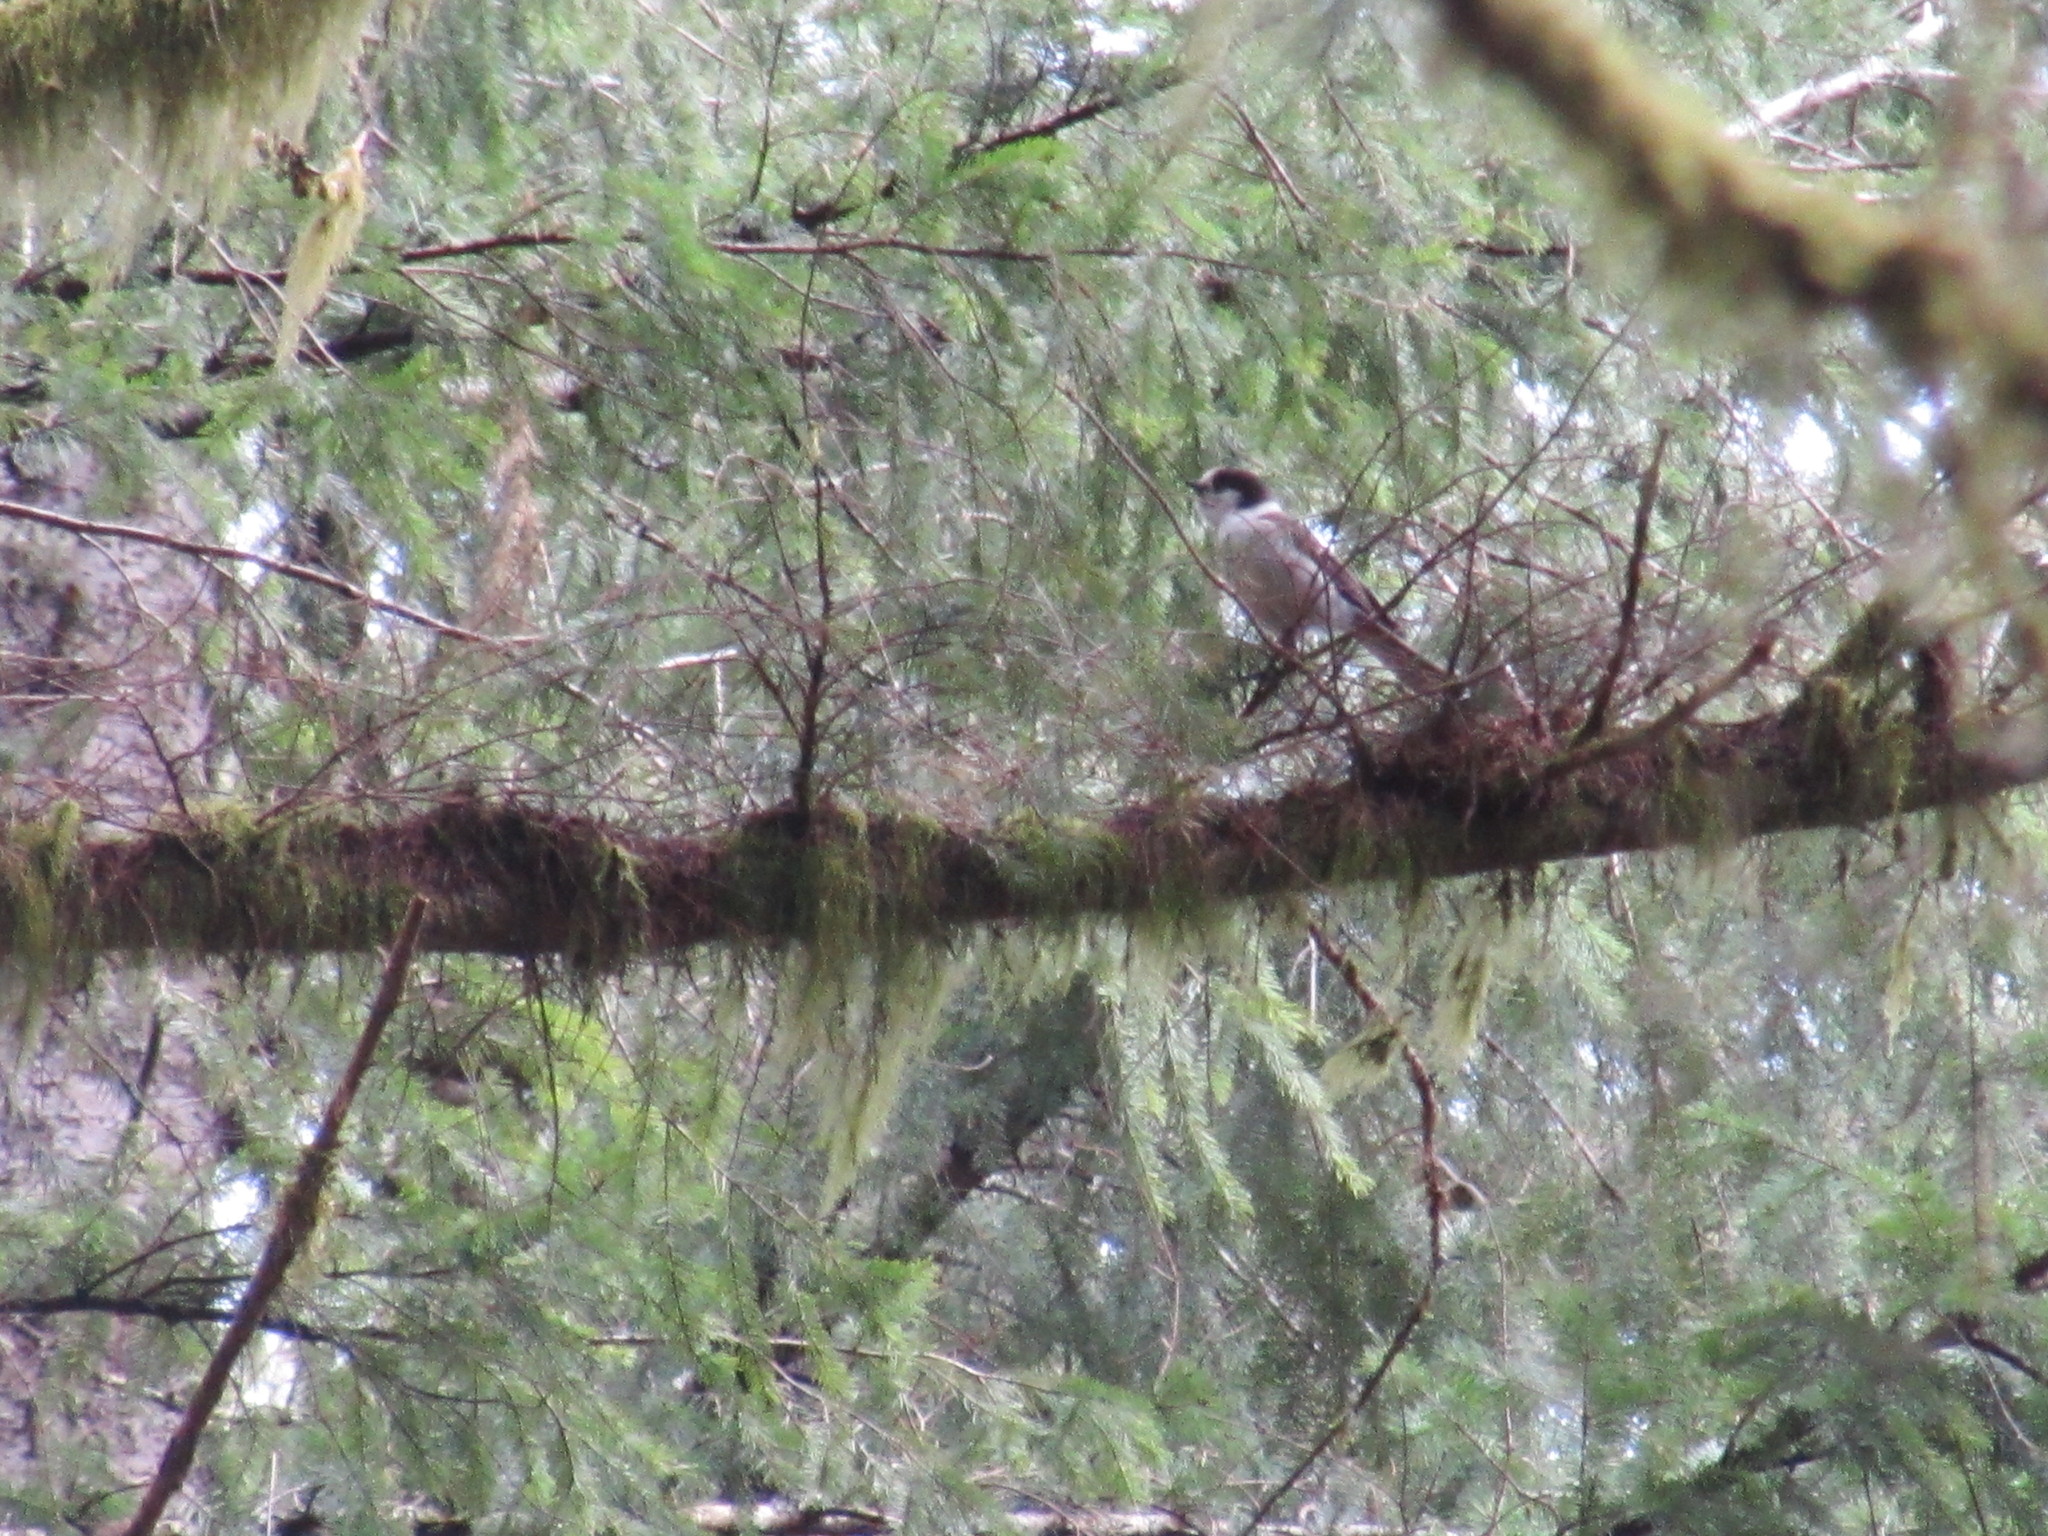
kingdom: Animalia
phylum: Chordata
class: Aves
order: Passeriformes
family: Corvidae
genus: Perisoreus
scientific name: Perisoreus canadensis
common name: Gray jay
